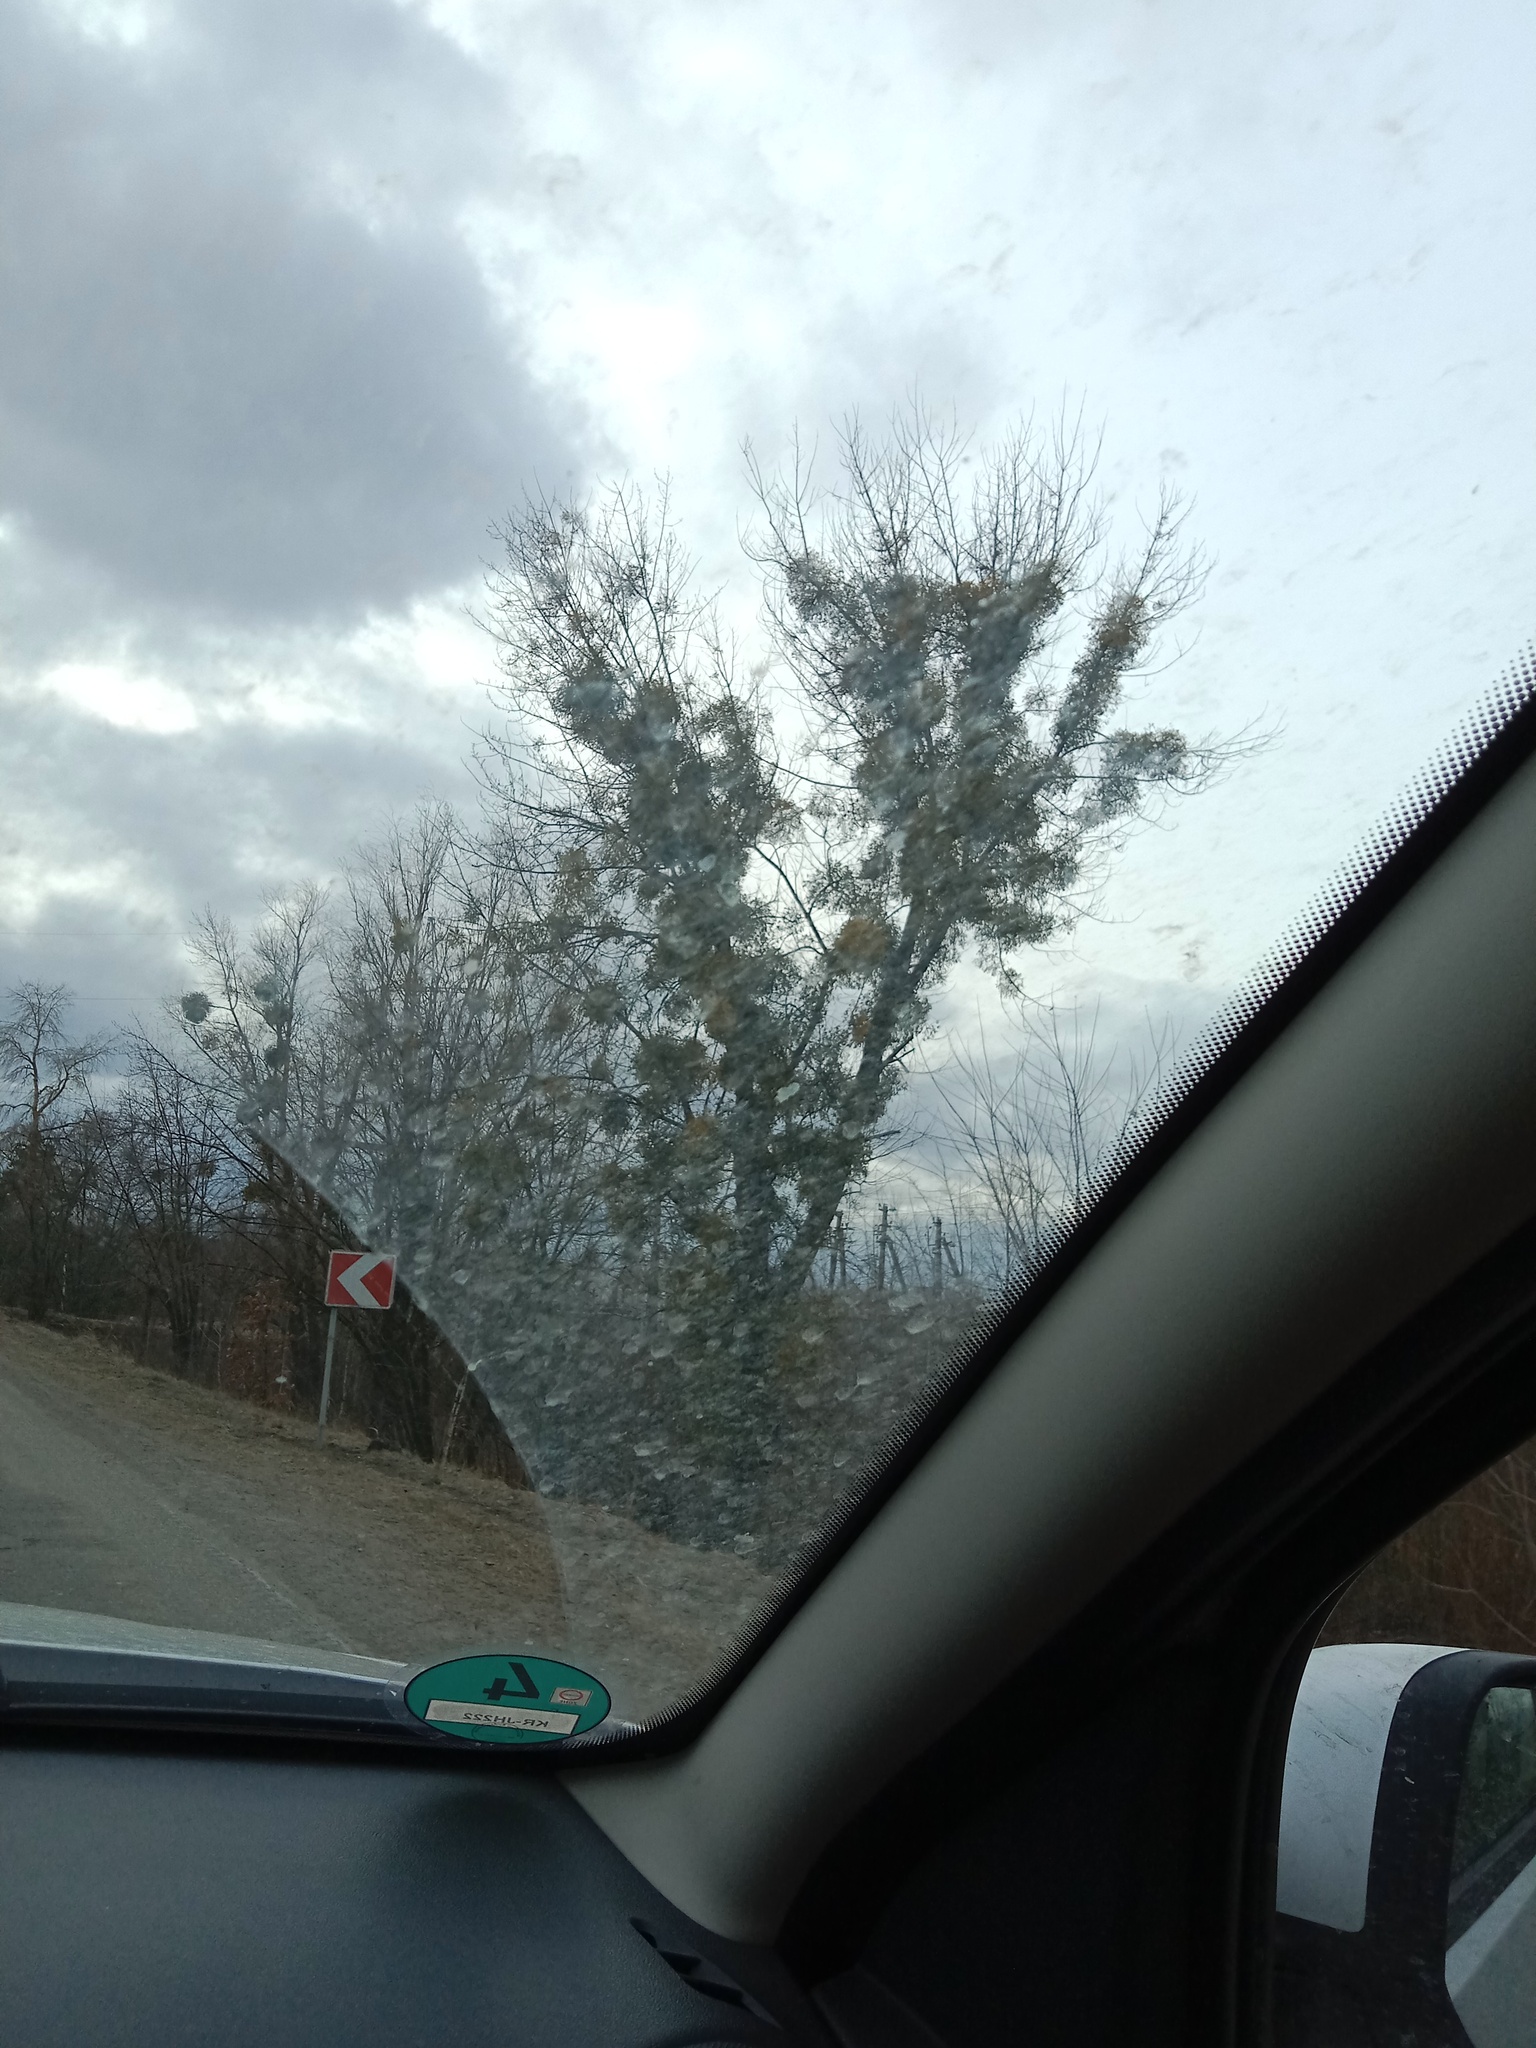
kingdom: Plantae
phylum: Tracheophyta
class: Magnoliopsida
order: Santalales
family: Viscaceae
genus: Viscum
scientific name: Viscum album
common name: Mistletoe
